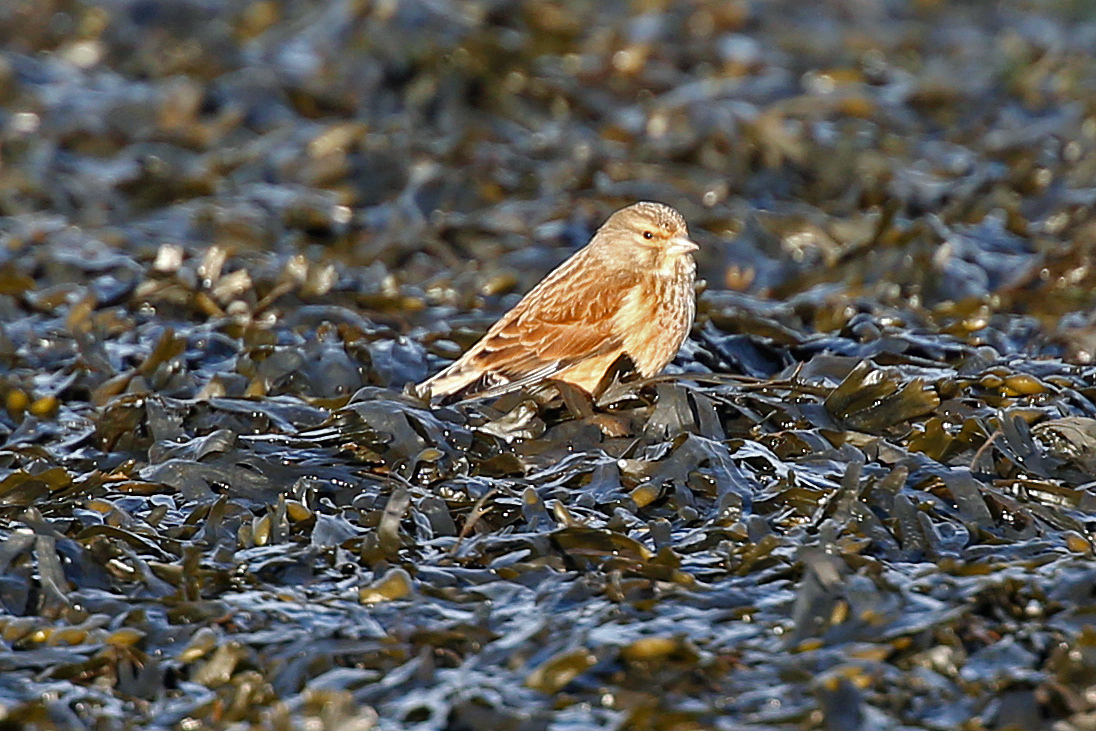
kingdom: Animalia
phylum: Chordata
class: Aves
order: Passeriformes
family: Fringillidae
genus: Linaria
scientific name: Linaria cannabina
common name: Common linnet
